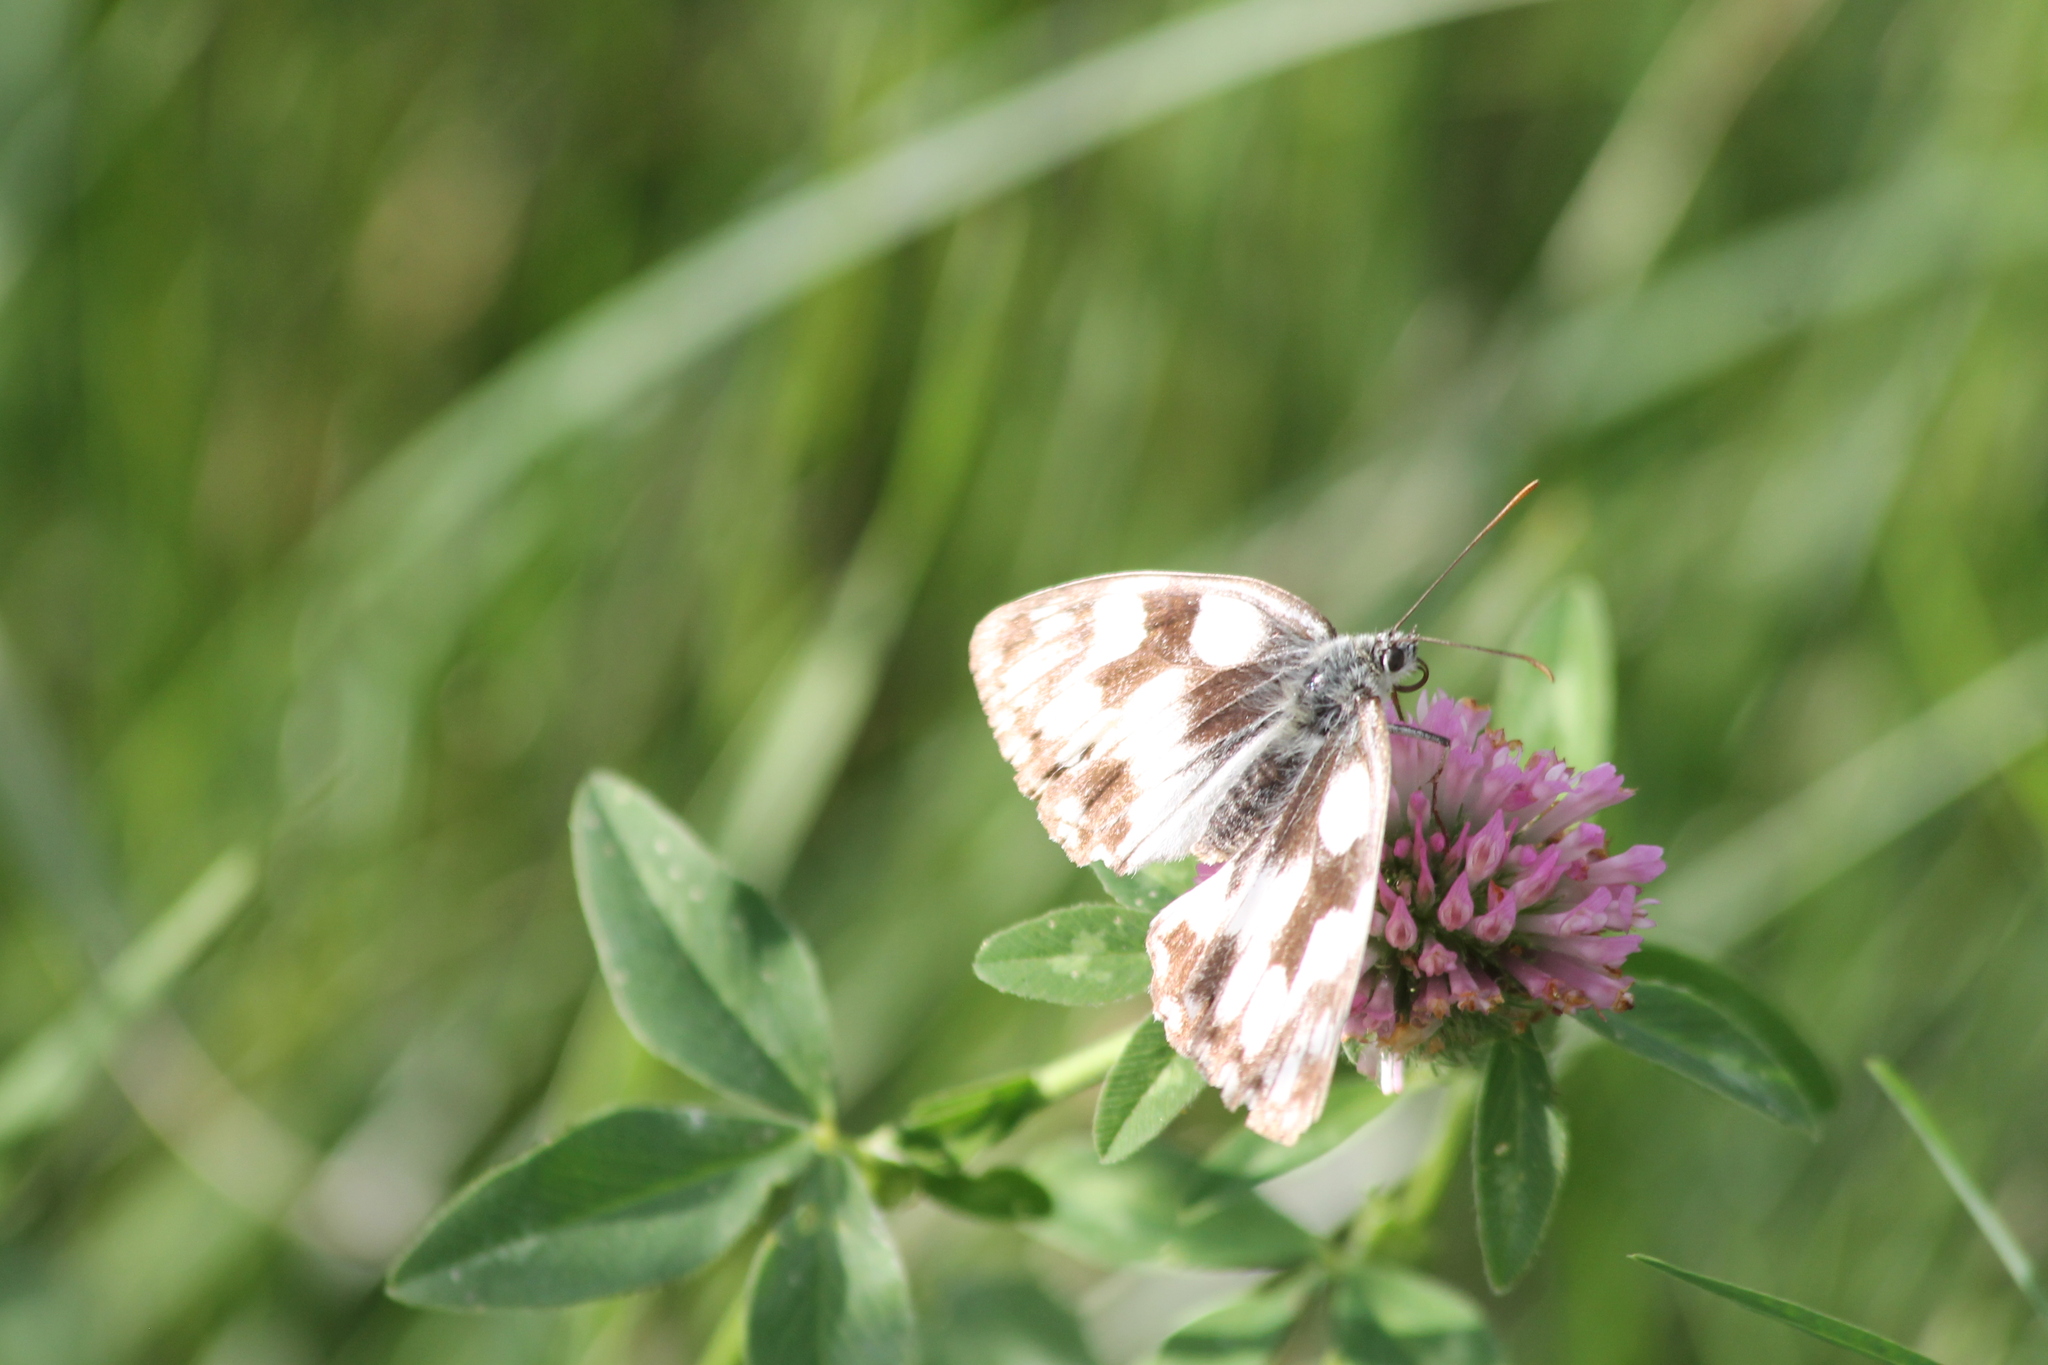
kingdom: Animalia
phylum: Arthropoda
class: Insecta
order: Lepidoptera
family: Nymphalidae
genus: Melanargia
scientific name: Melanargia galathea
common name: Marbled white
